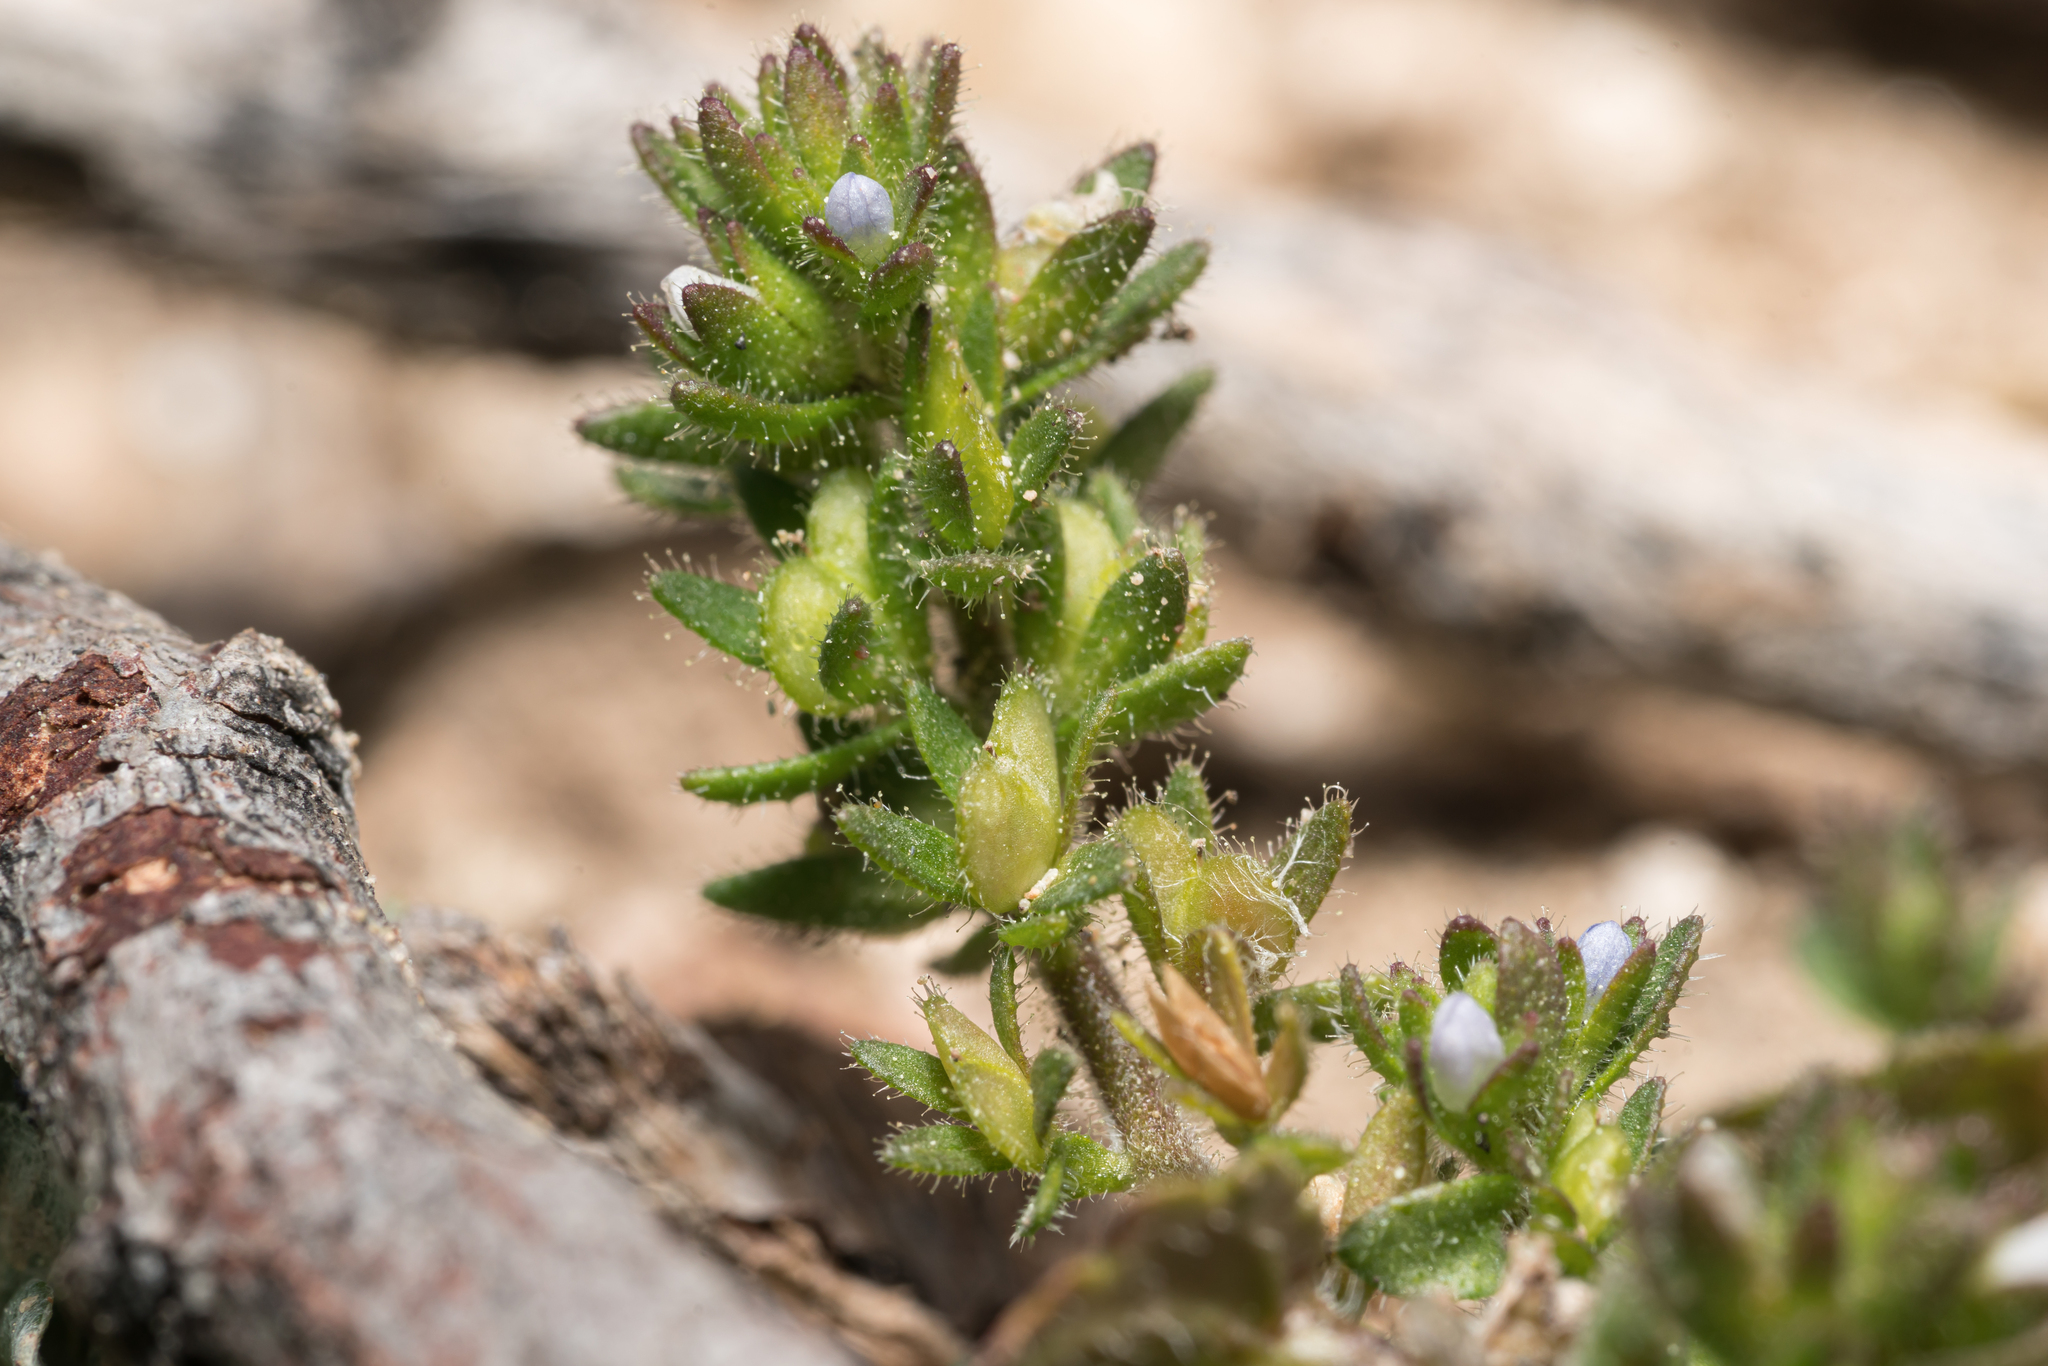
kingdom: Plantae
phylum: Tracheophyta
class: Magnoliopsida
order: Lamiales
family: Plantaginaceae
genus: Veronica
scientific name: Veronica arvensis
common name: Corn speedwell
